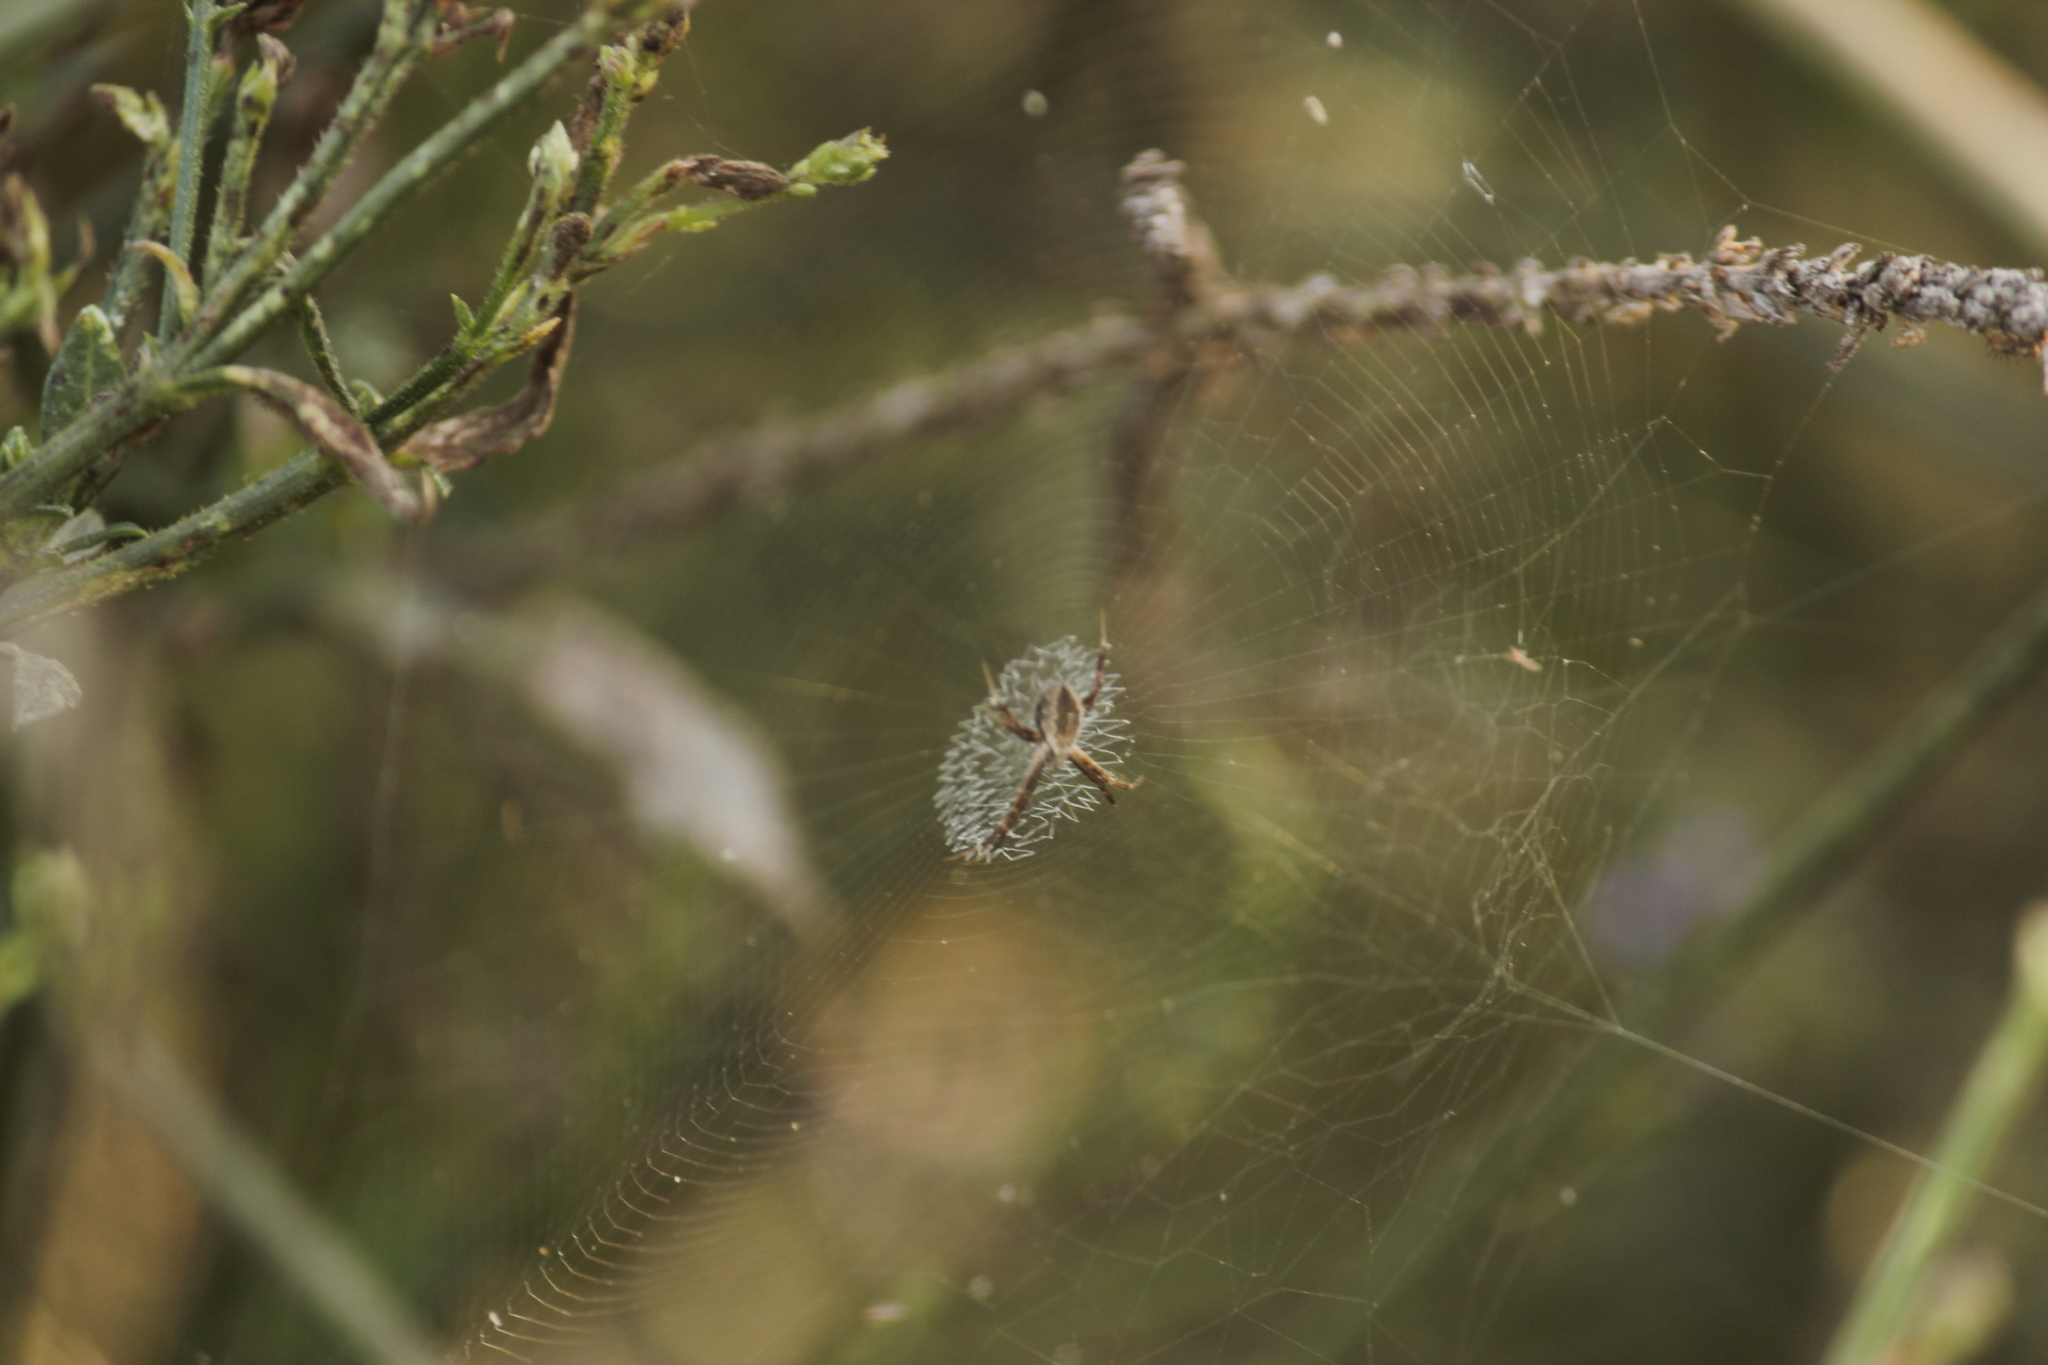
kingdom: Animalia
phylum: Arthropoda
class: Arachnida
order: Araneae
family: Araneidae
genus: Argiope
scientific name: Argiope argentata
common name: Orb weavers
